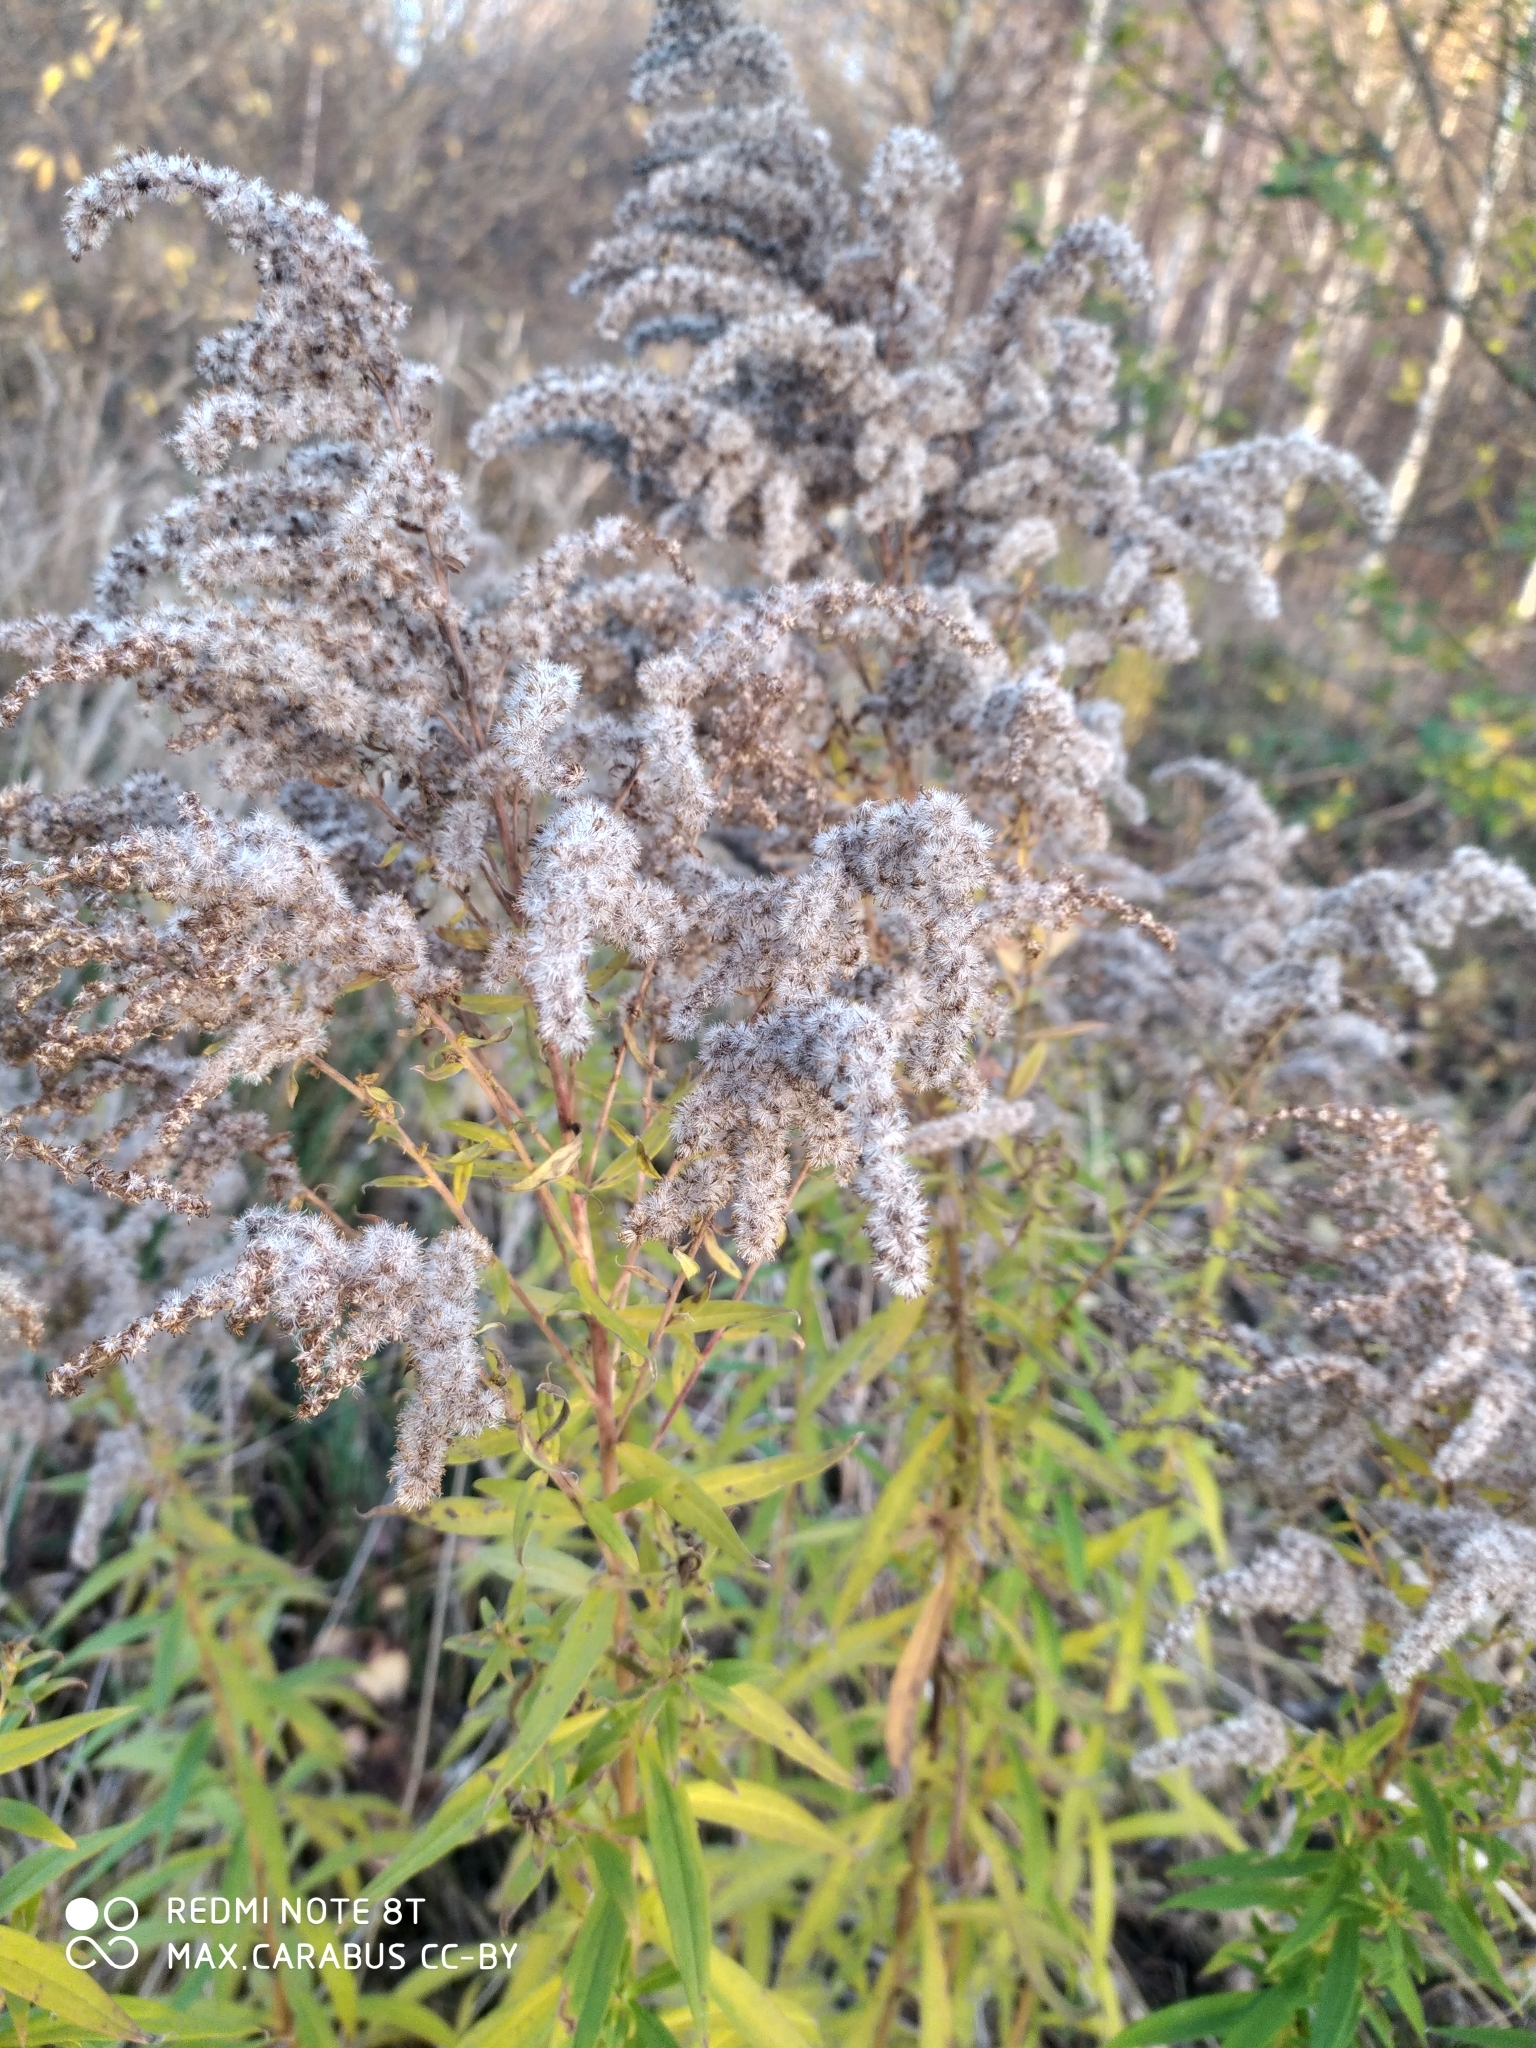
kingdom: Plantae
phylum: Tracheophyta
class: Magnoliopsida
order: Asterales
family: Asteraceae
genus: Solidago
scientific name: Solidago canadensis
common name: Canada goldenrod
